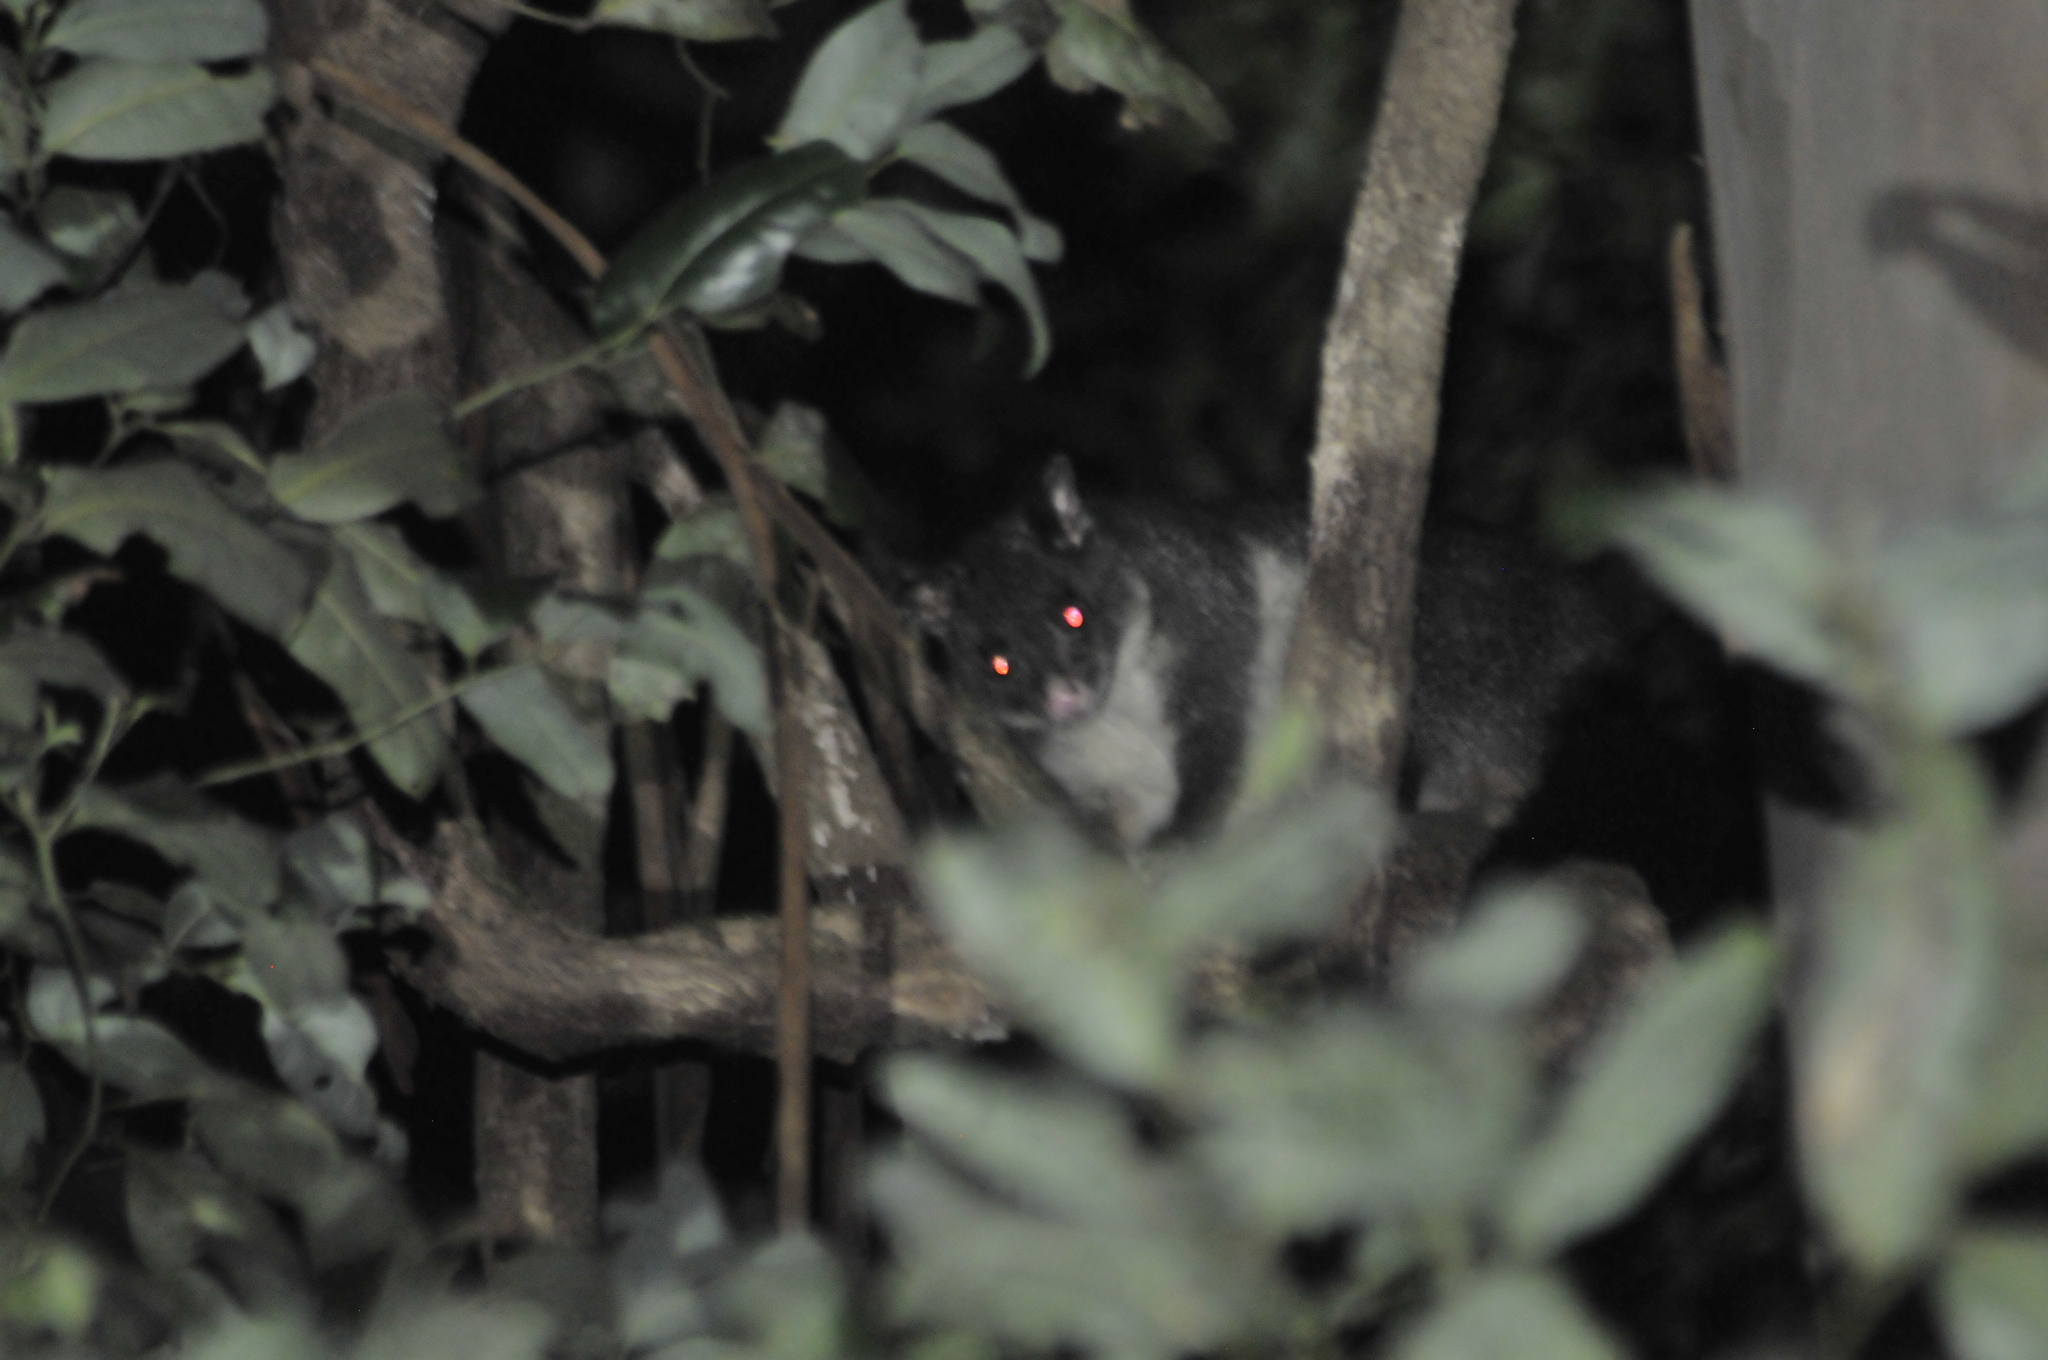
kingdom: Animalia
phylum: Chordata
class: Mammalia
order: Diprotodontia
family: Phalangeridae
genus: Trichosurus
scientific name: Trichosurus caninus
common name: Short-eared possum
